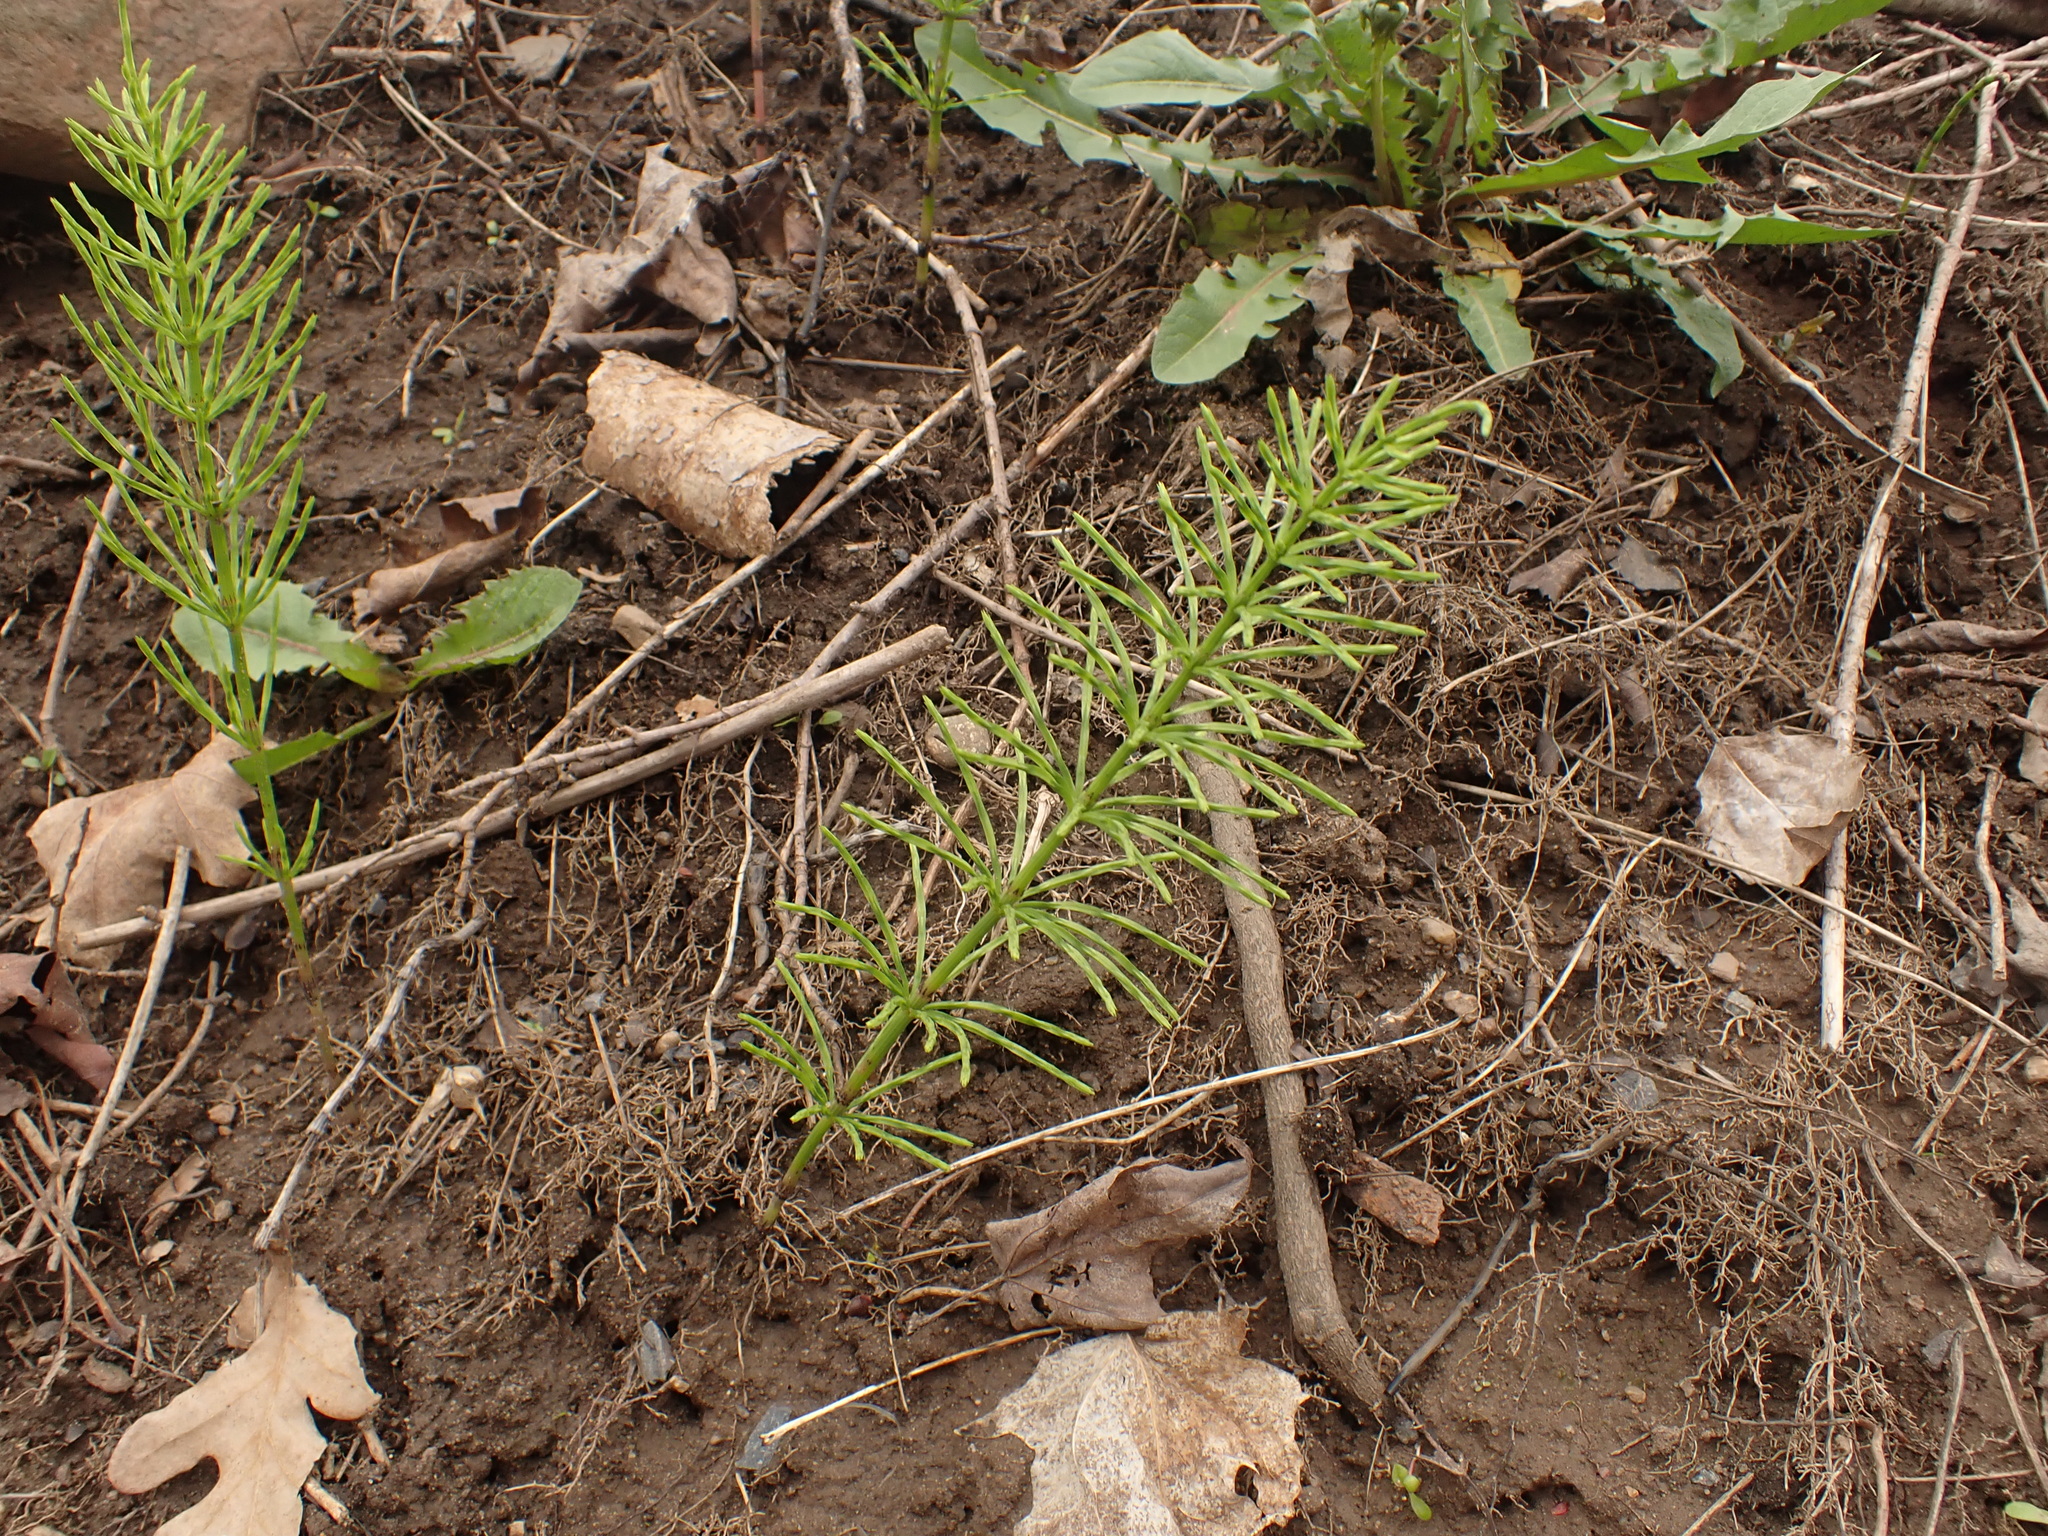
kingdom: Plantae
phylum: Tracheophyta
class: Polypodiopsida
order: Equisetales
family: Equisetaceae
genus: Equisetum
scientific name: Equisetum arvense
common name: Field horsetail
